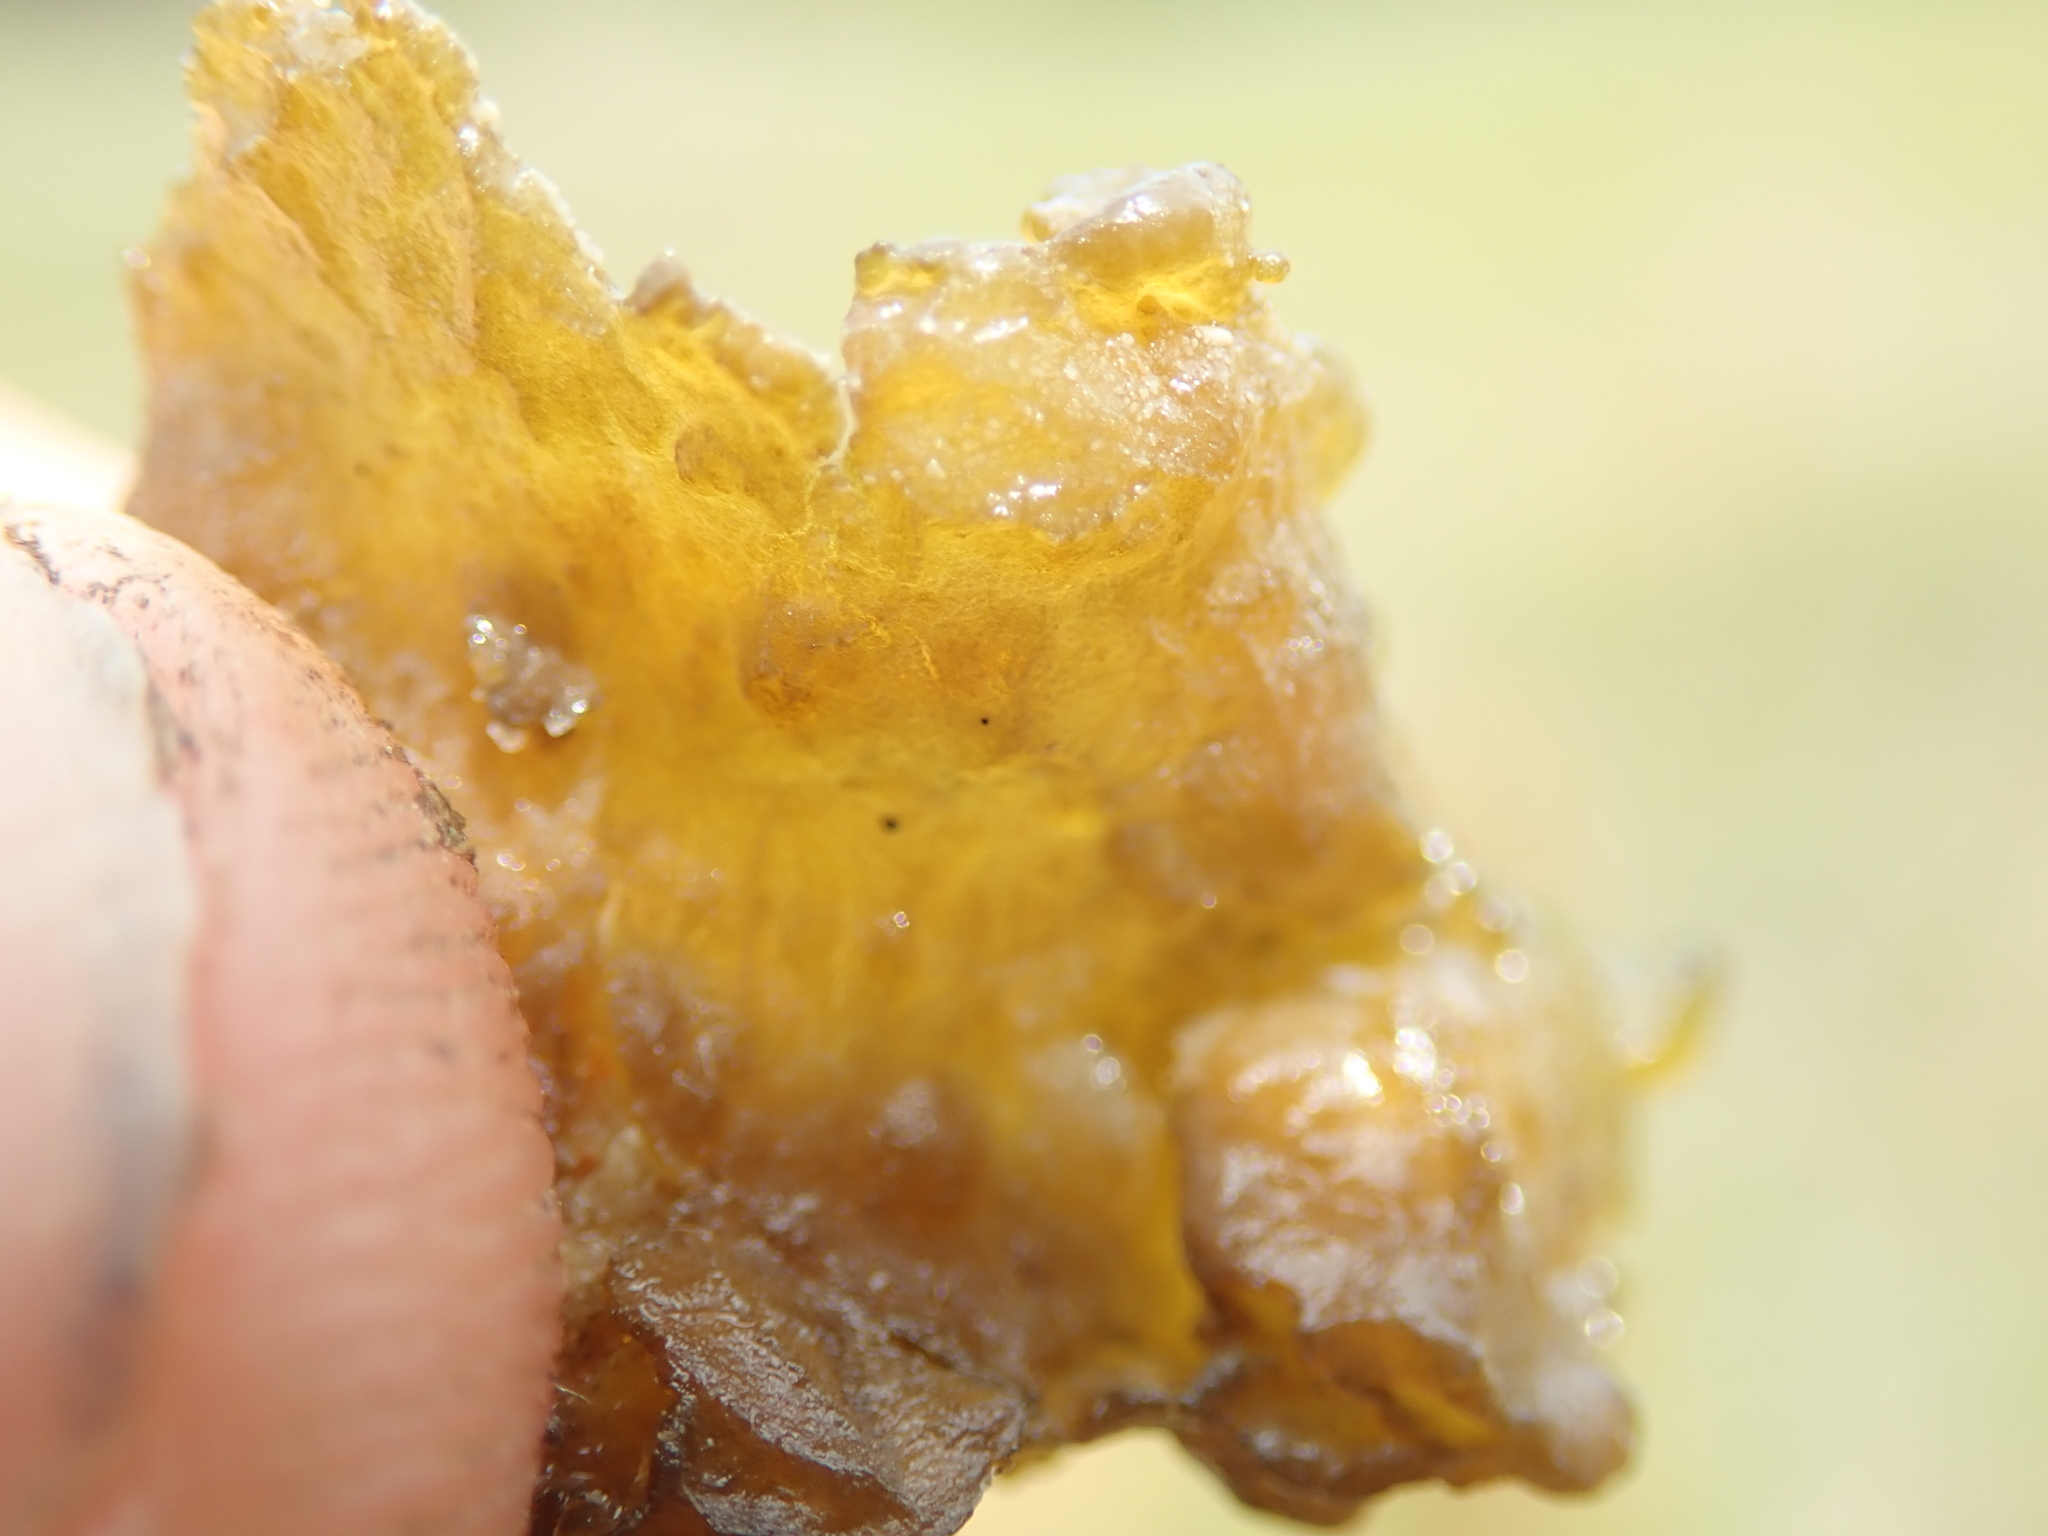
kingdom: Bacteria
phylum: Cyanobacteria
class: Cyanobacteriia
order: Cyanobacteriales
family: Nostocaceae
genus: Nostoc
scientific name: Nostoc commune
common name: Star jelly
